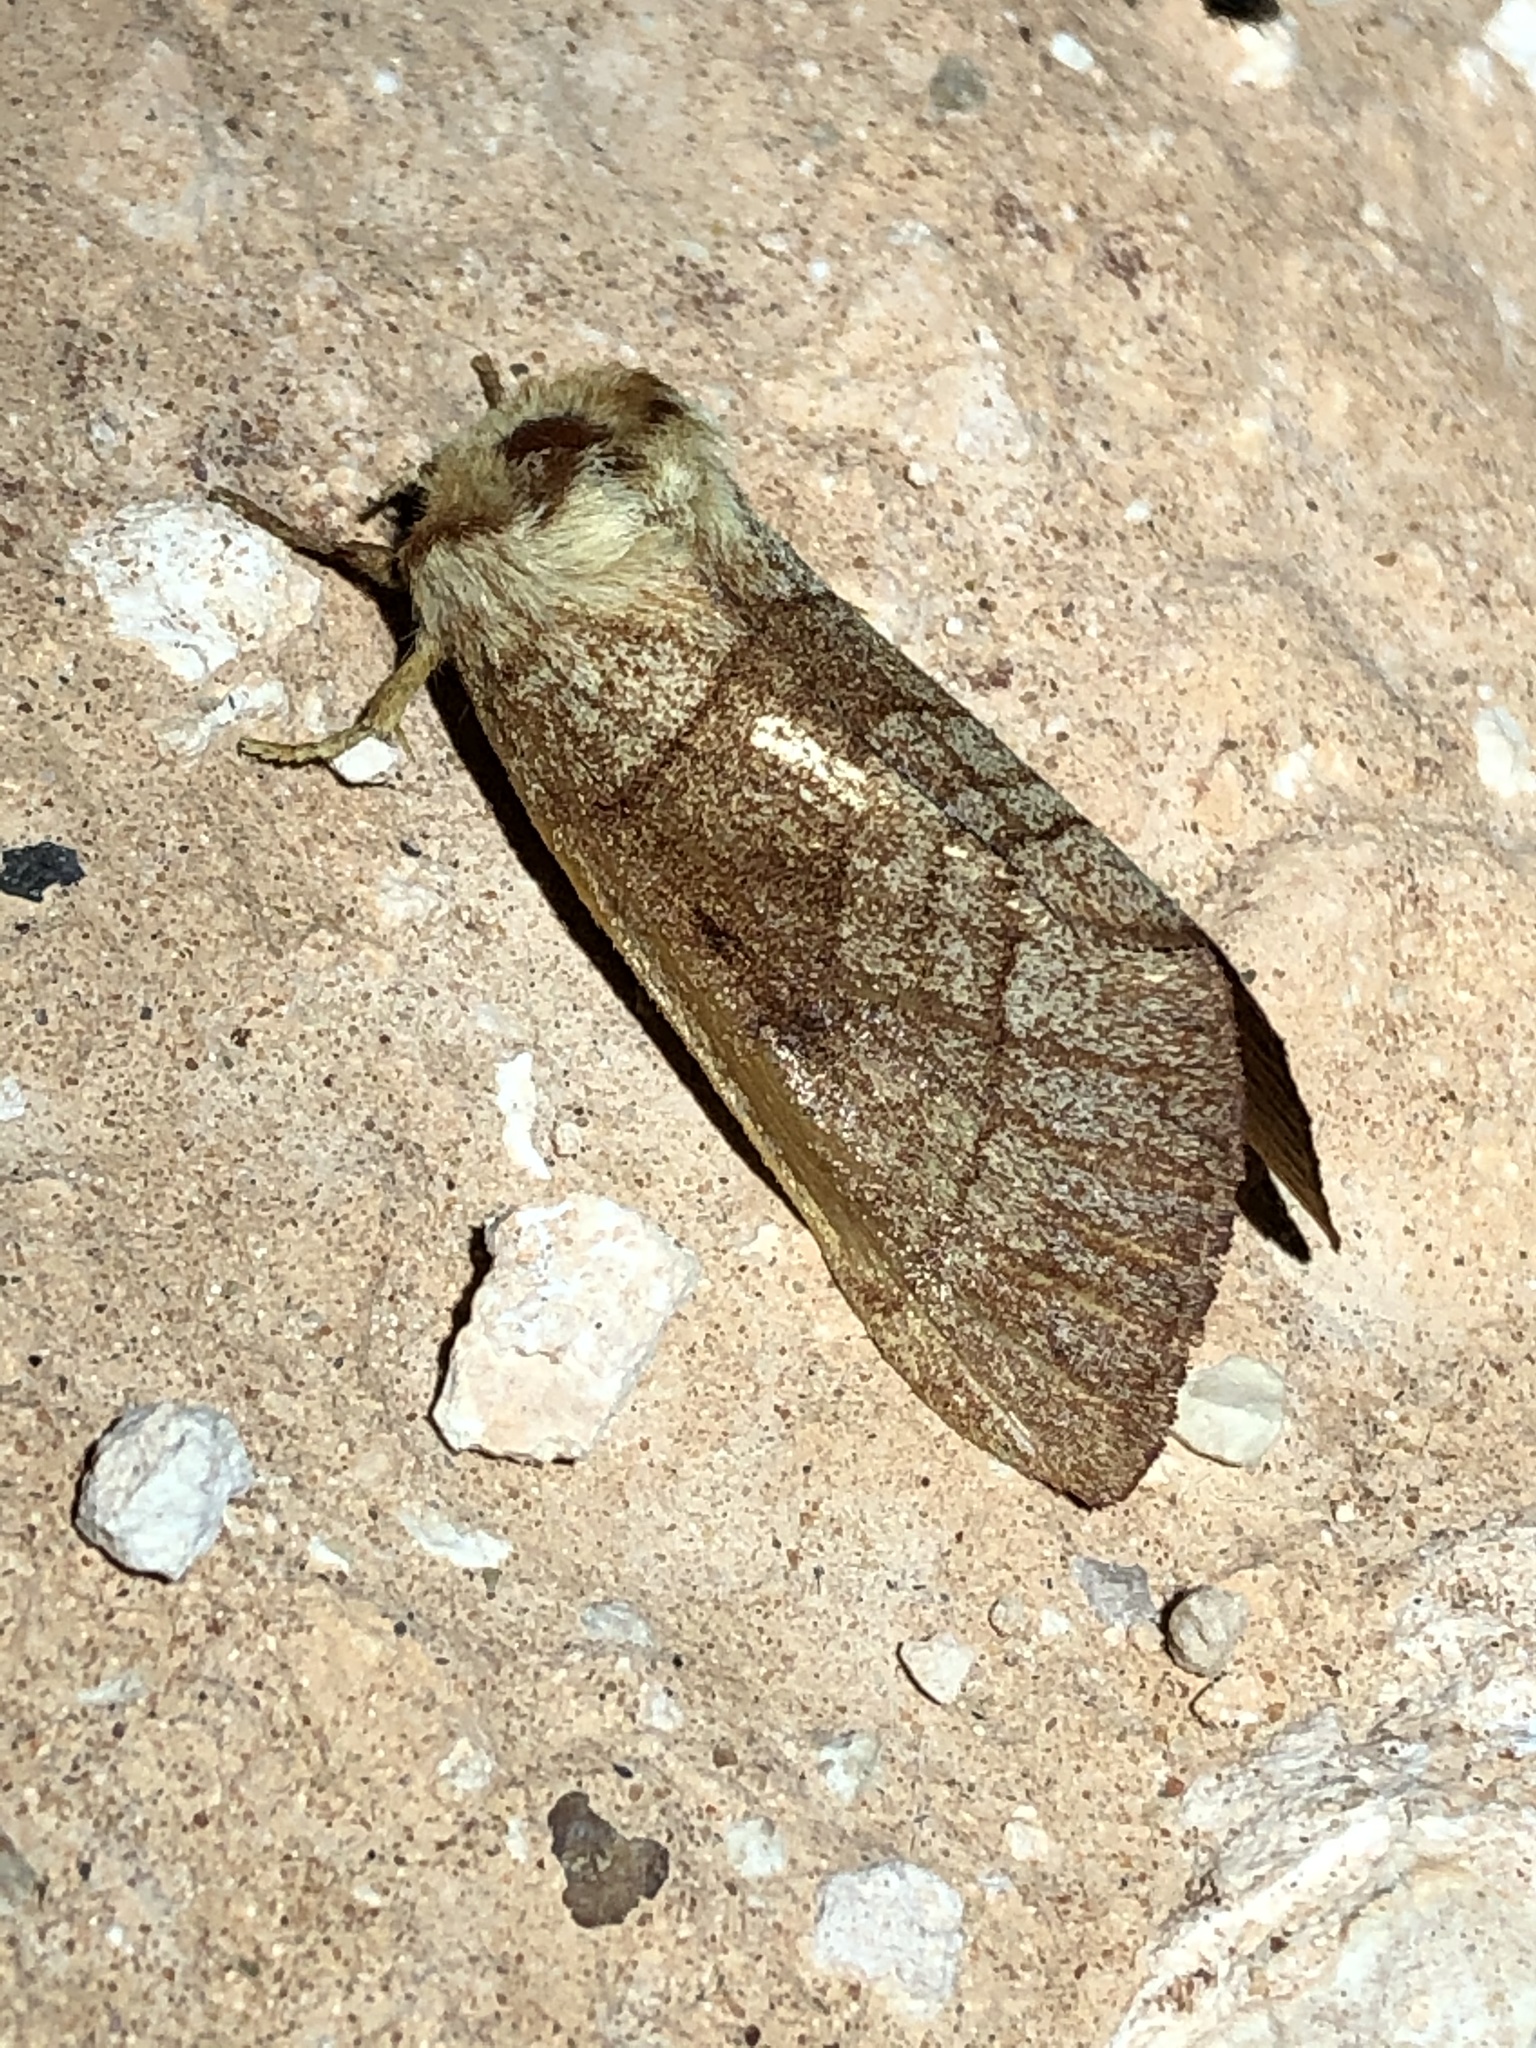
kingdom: Animalia
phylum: Arthropoda
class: Insecta
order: Lepidoptera
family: Notodontidae
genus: Datana
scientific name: Datana neomexicana
